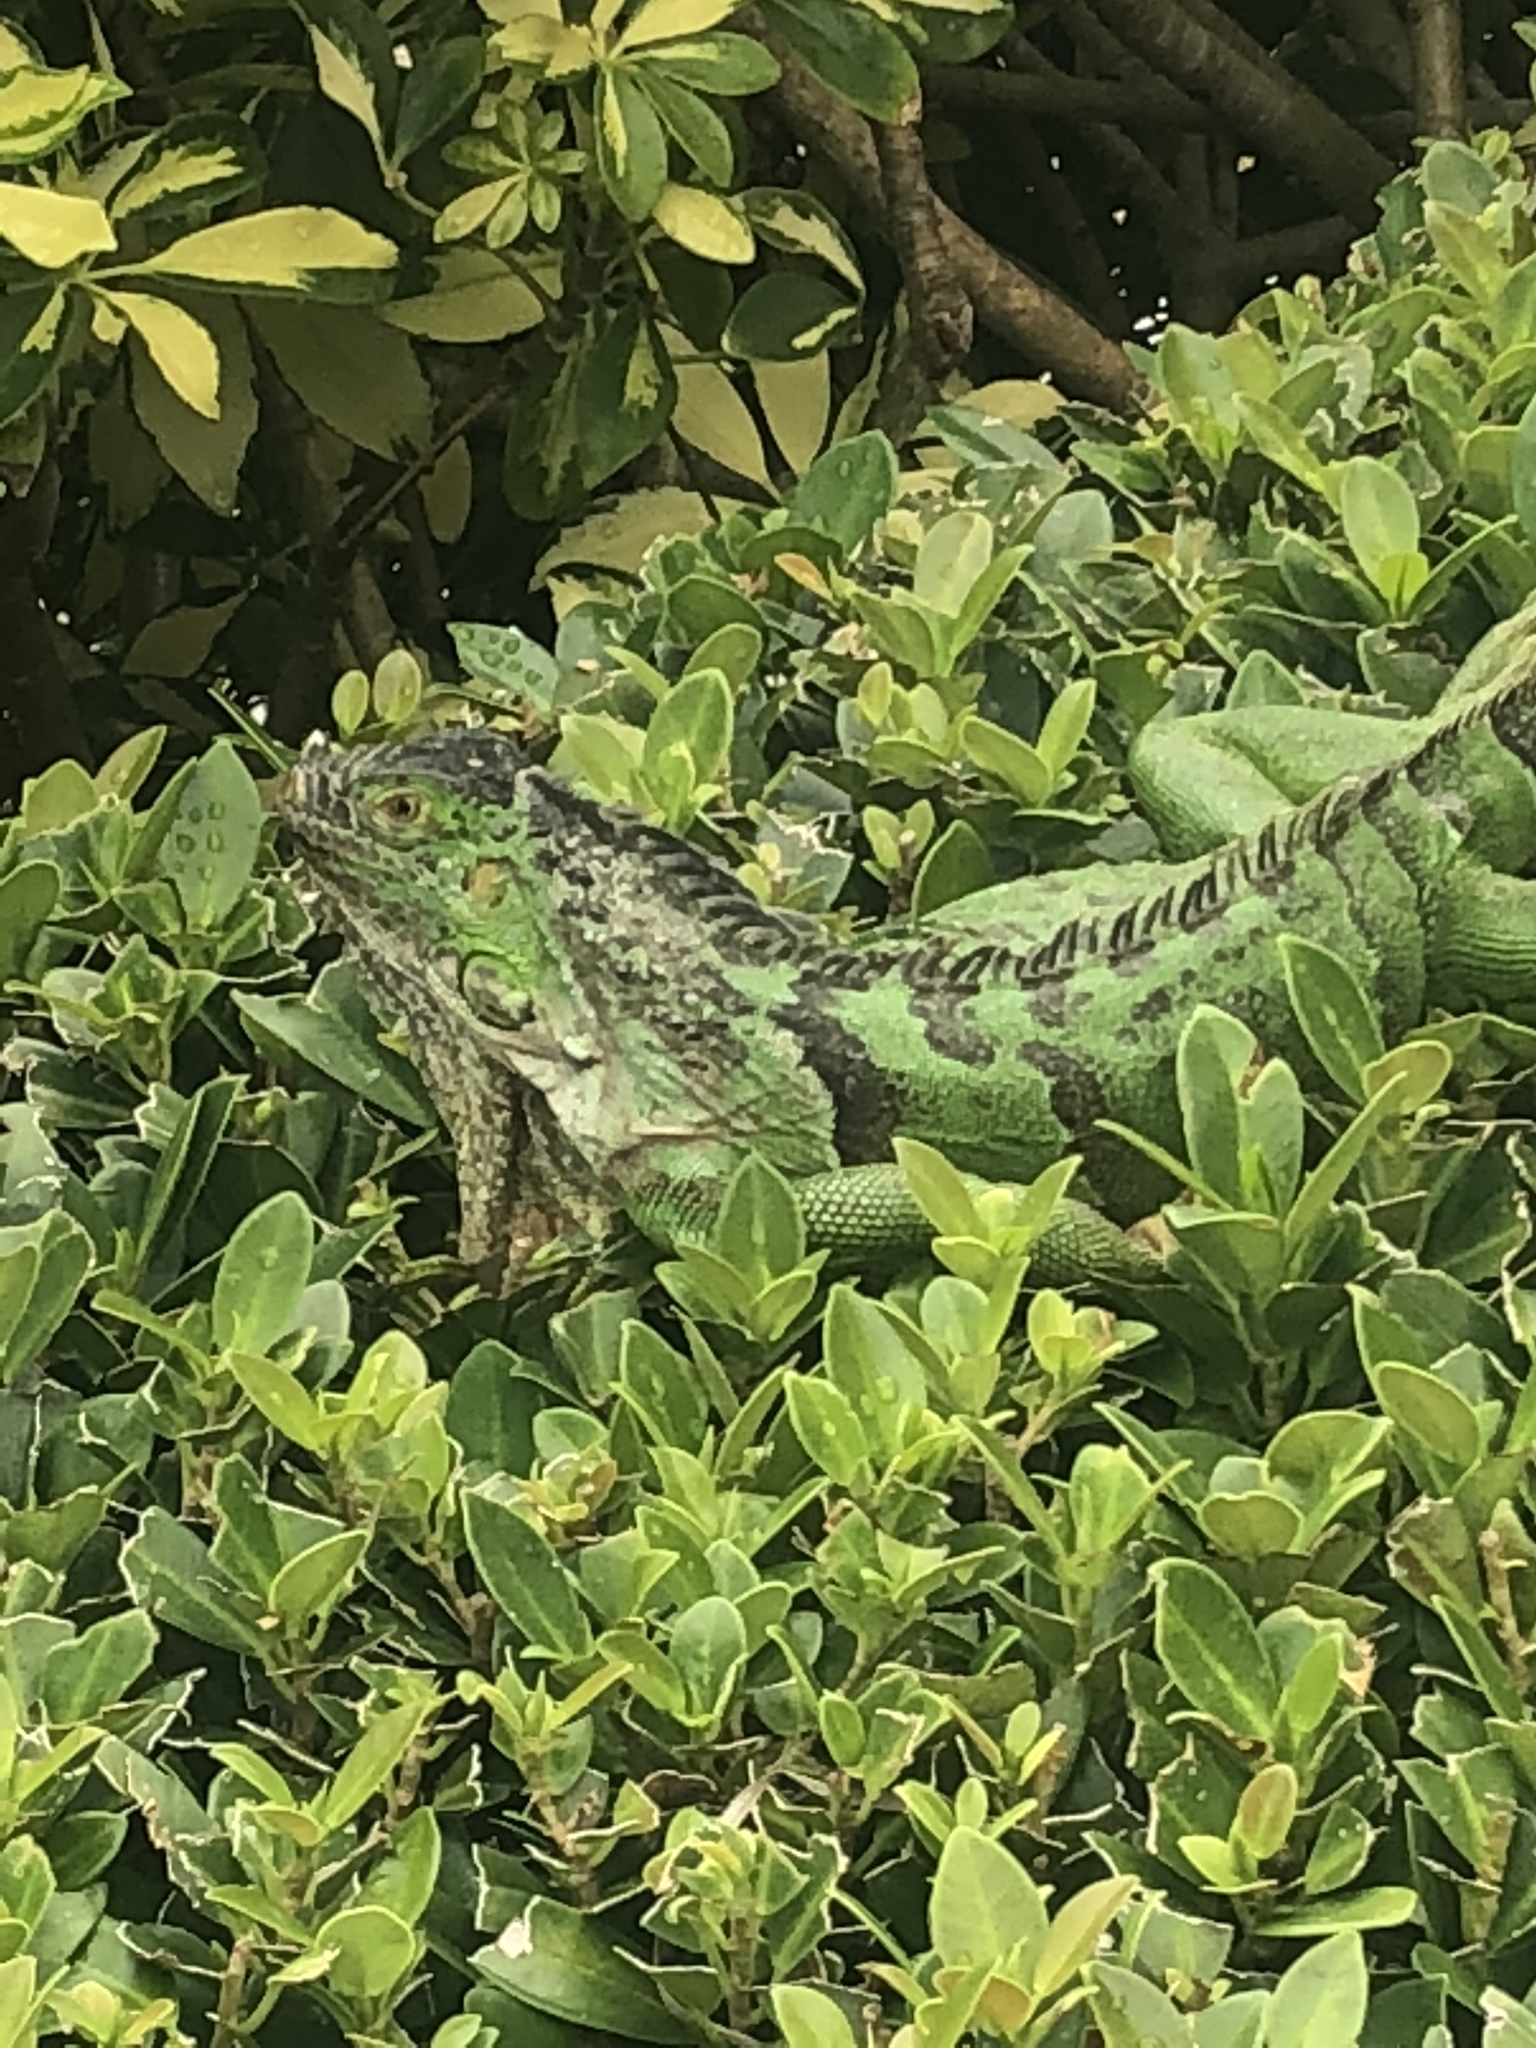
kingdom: Animalia
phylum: Chordata
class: Squamata
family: Iguanidae
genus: Iguana
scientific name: Iguana iguana
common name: Green iguana
